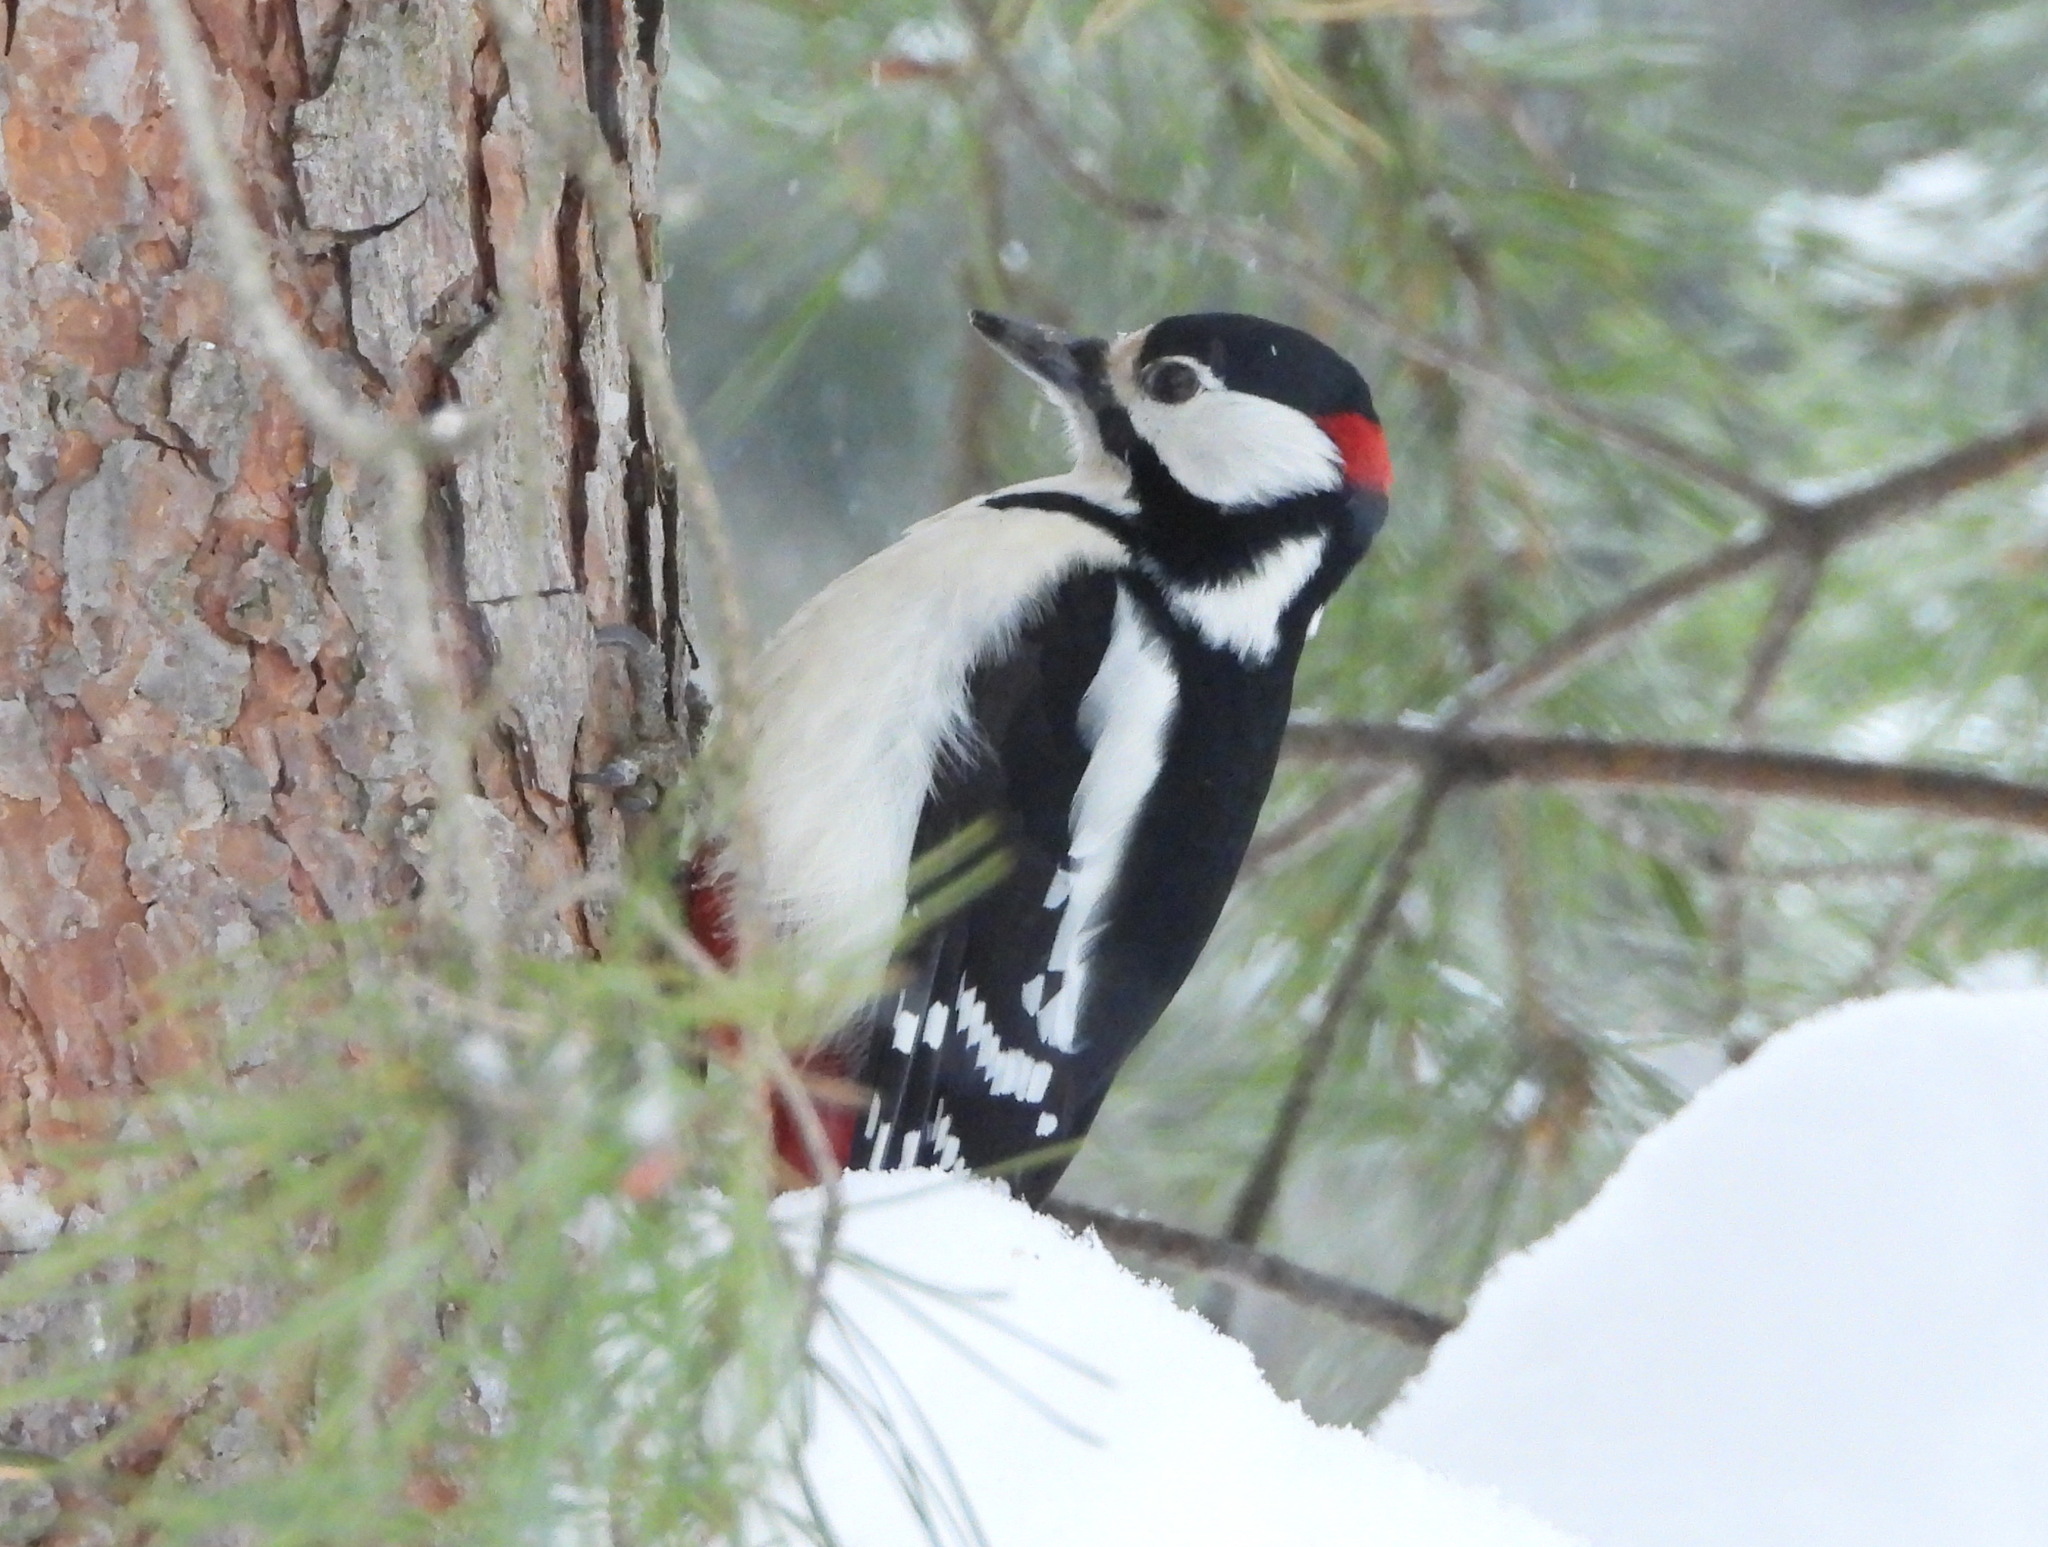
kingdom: Animalia
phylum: Chordata
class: Aves
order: Piciformes
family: Picidae
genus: Dendrocopos
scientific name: Dendrocopos major
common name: Great spotted woodpecker
